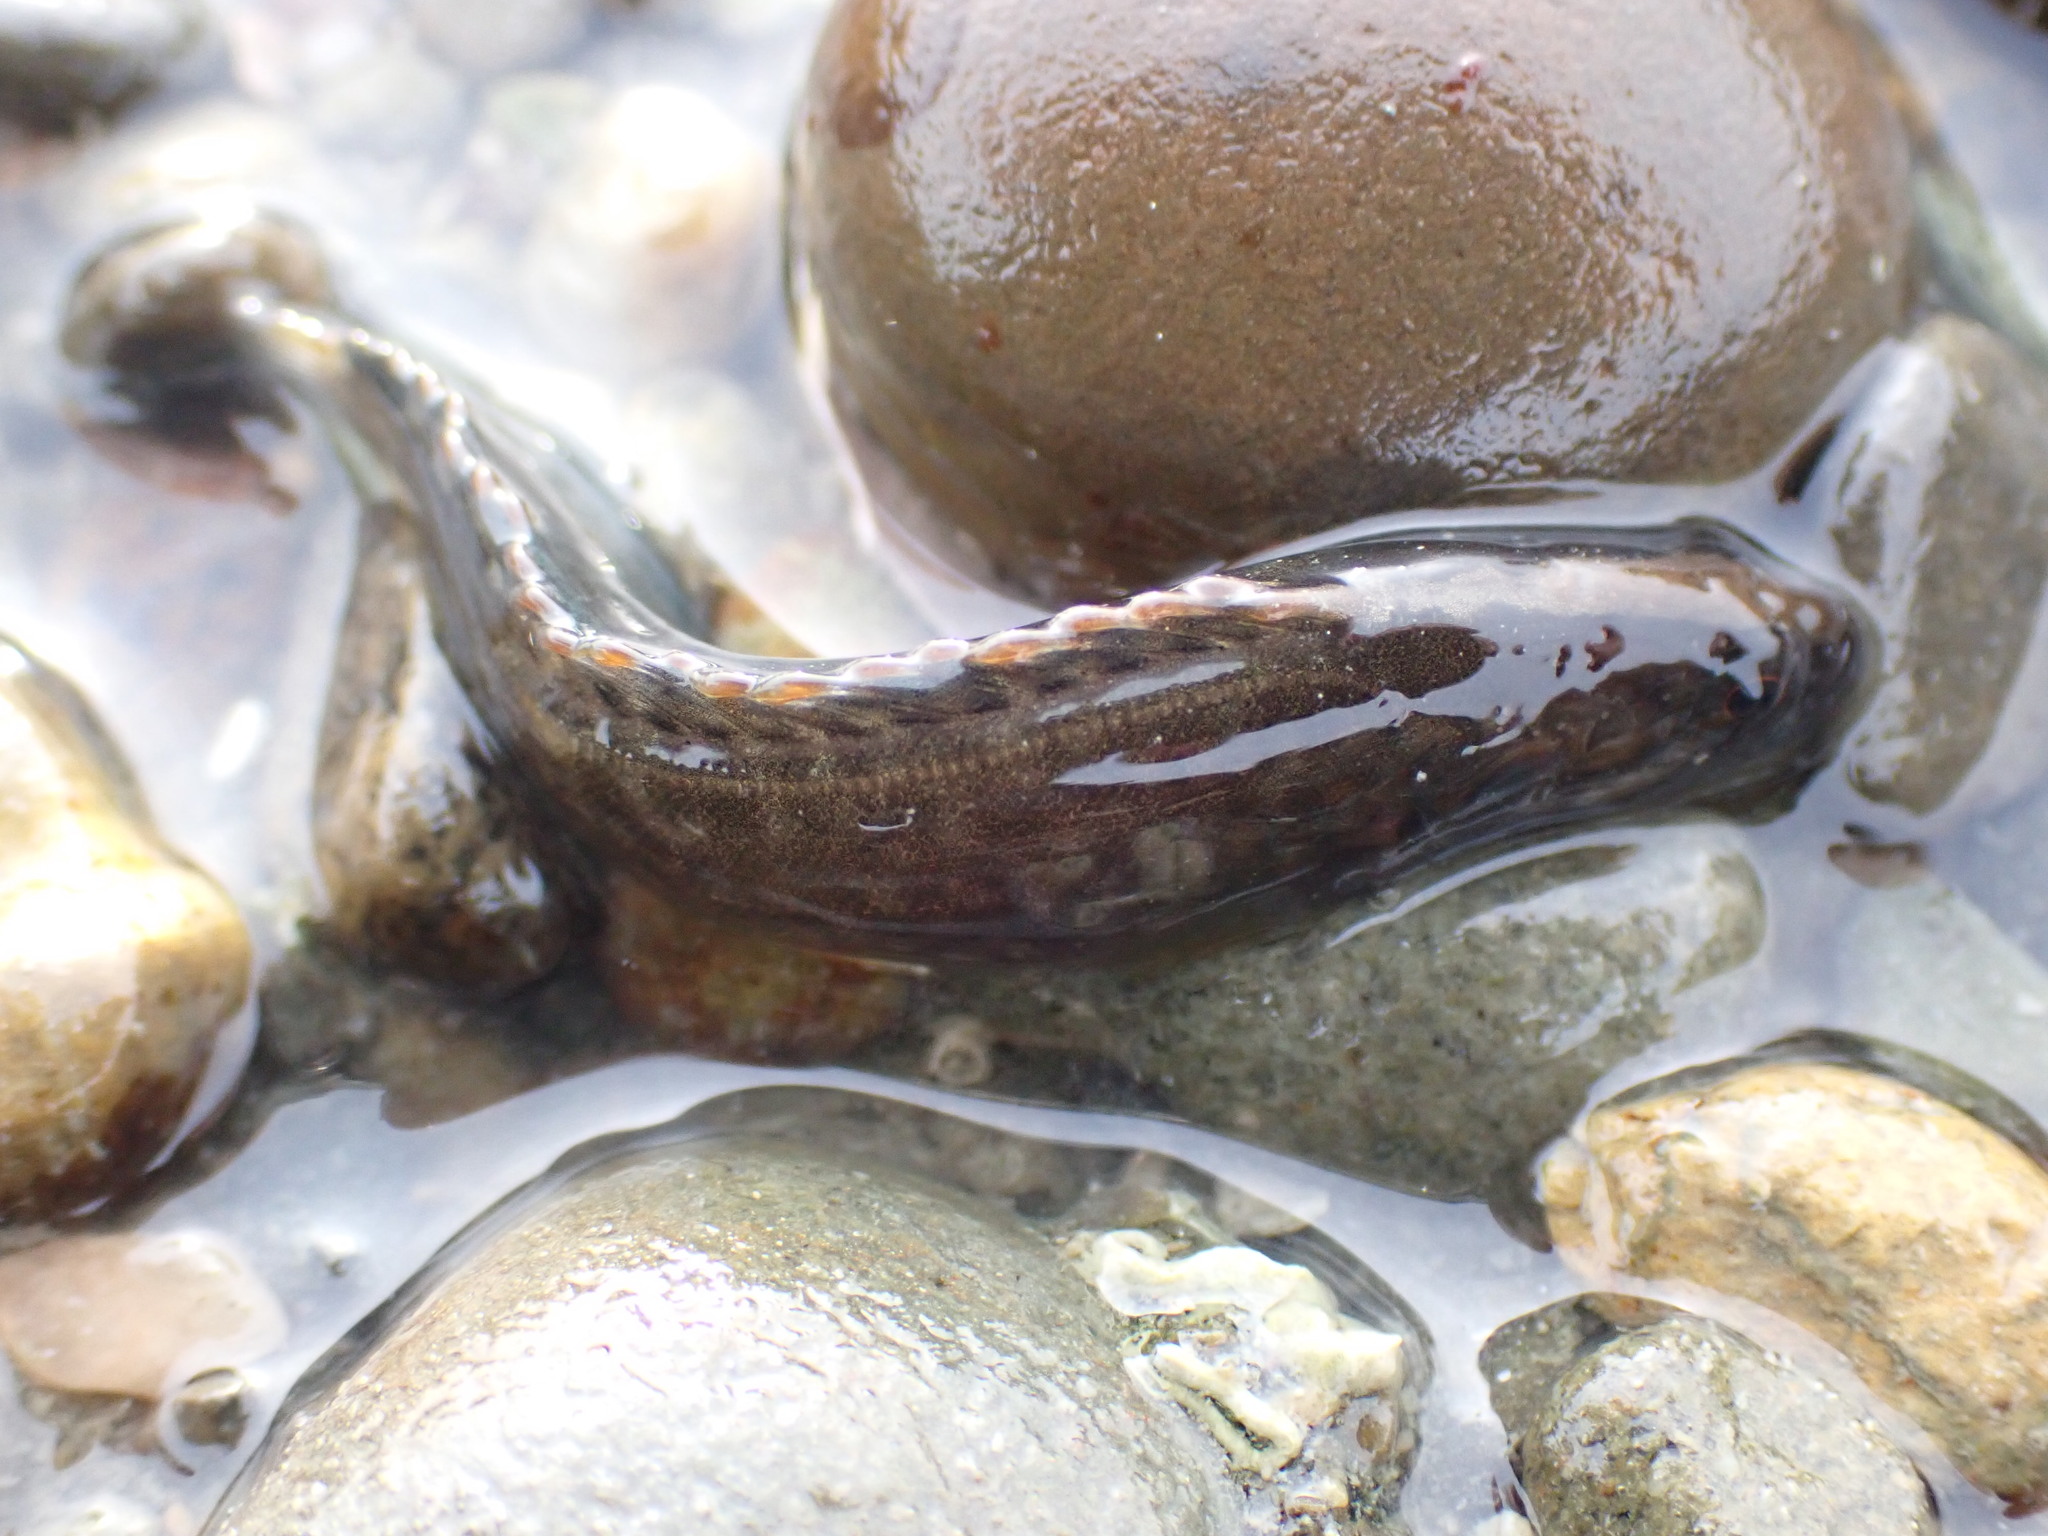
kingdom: Animalia
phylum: Chordata
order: Perciformes
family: Plesiopidae
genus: Acanthoclinus
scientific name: Acanthoclinus fuscus
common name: Olive rockfish
